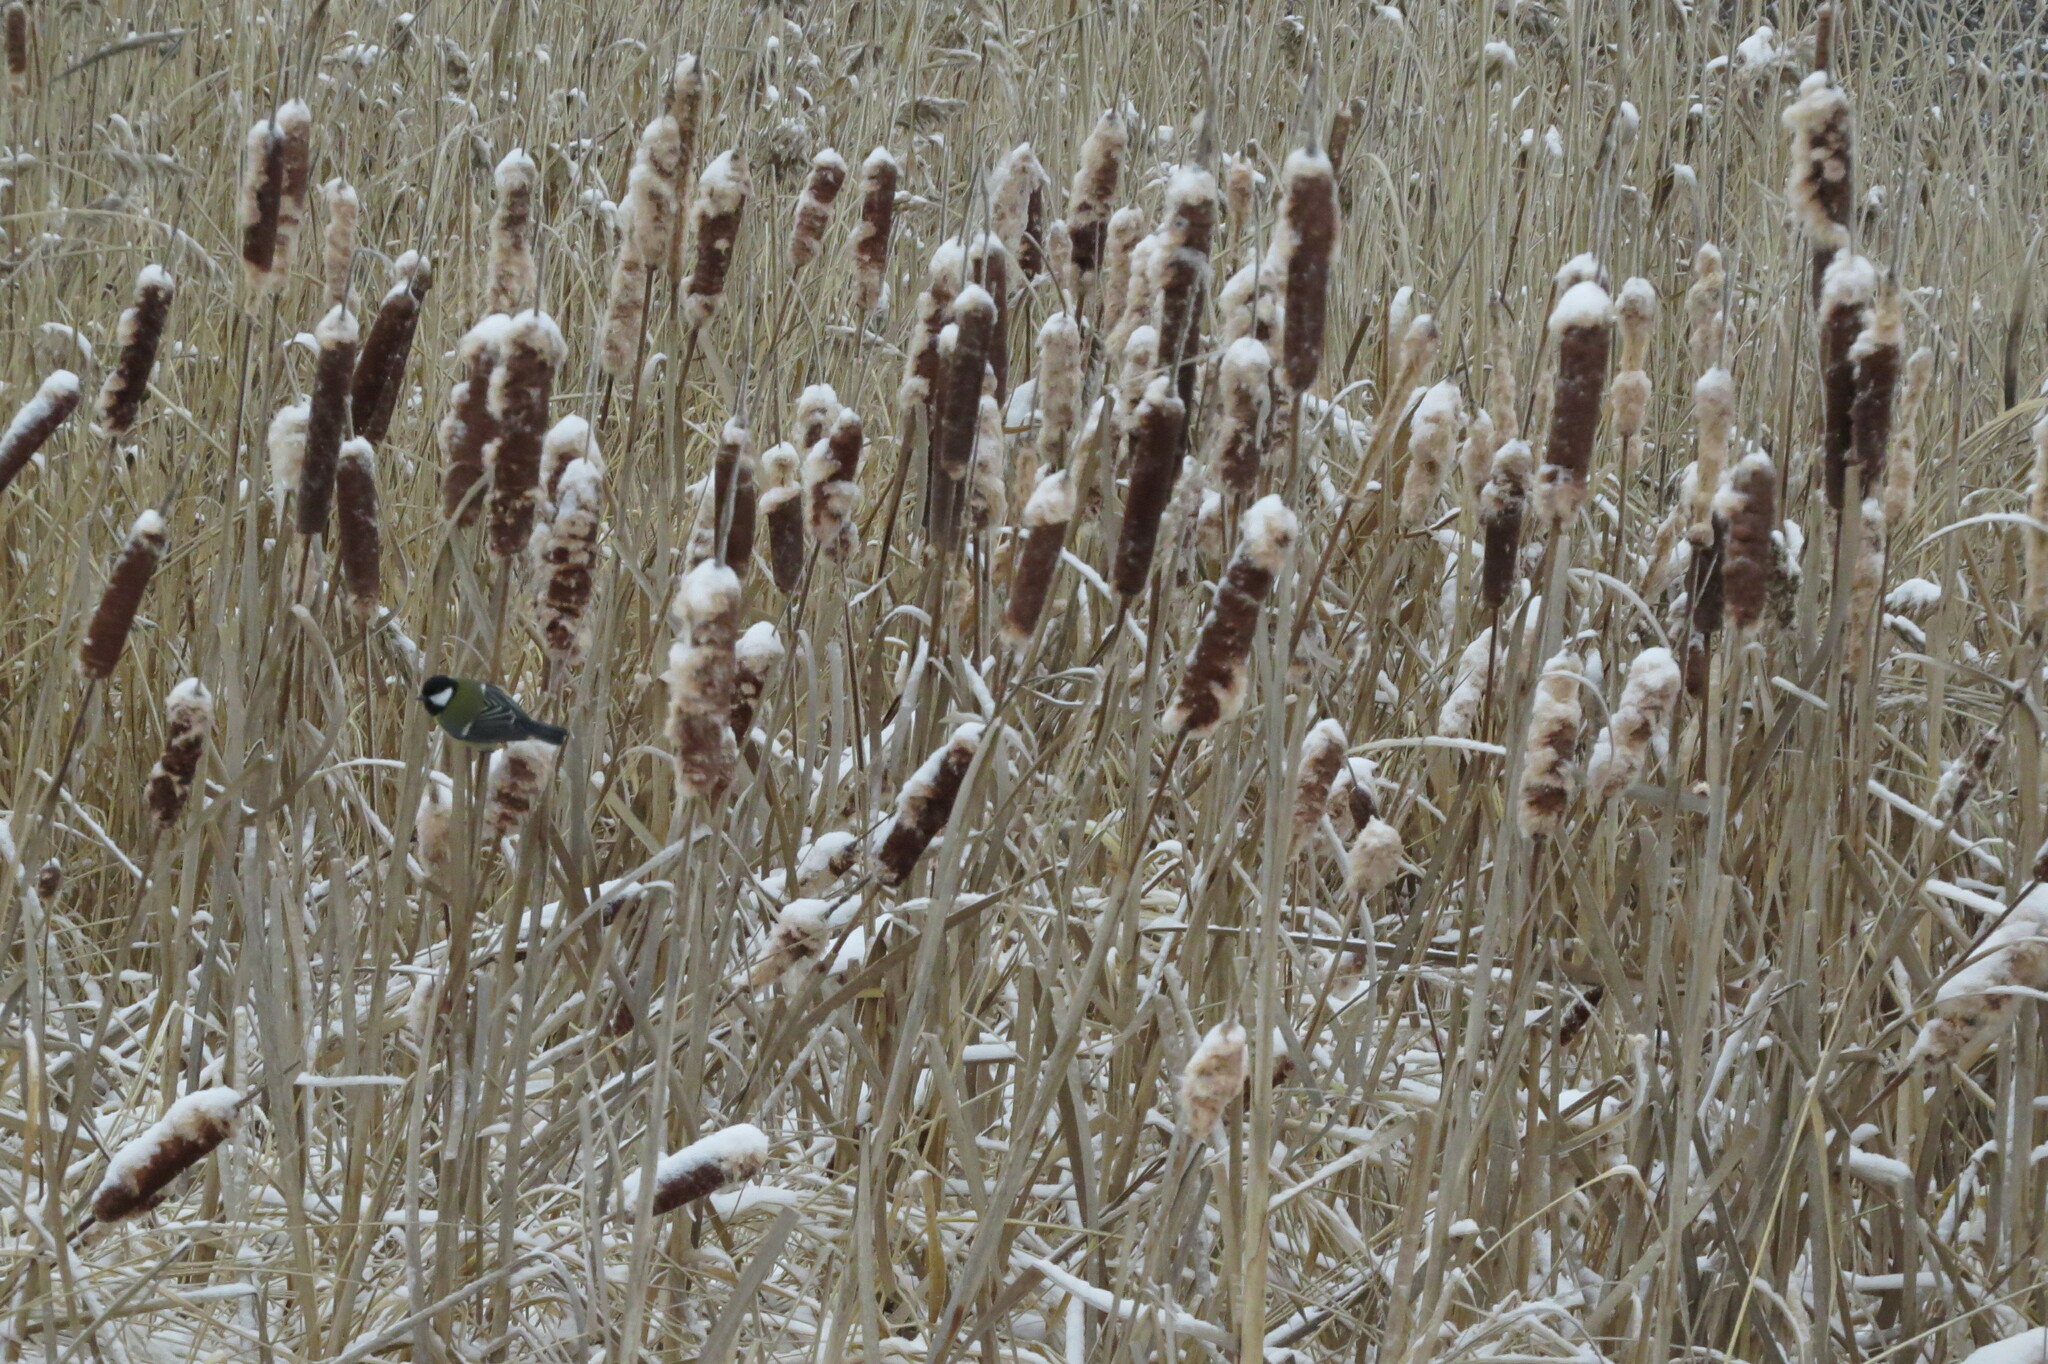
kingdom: Animalia
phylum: Chordata
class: Aves
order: Passeriformes
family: Paridae
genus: Parus
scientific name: Parus major
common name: Great tit
